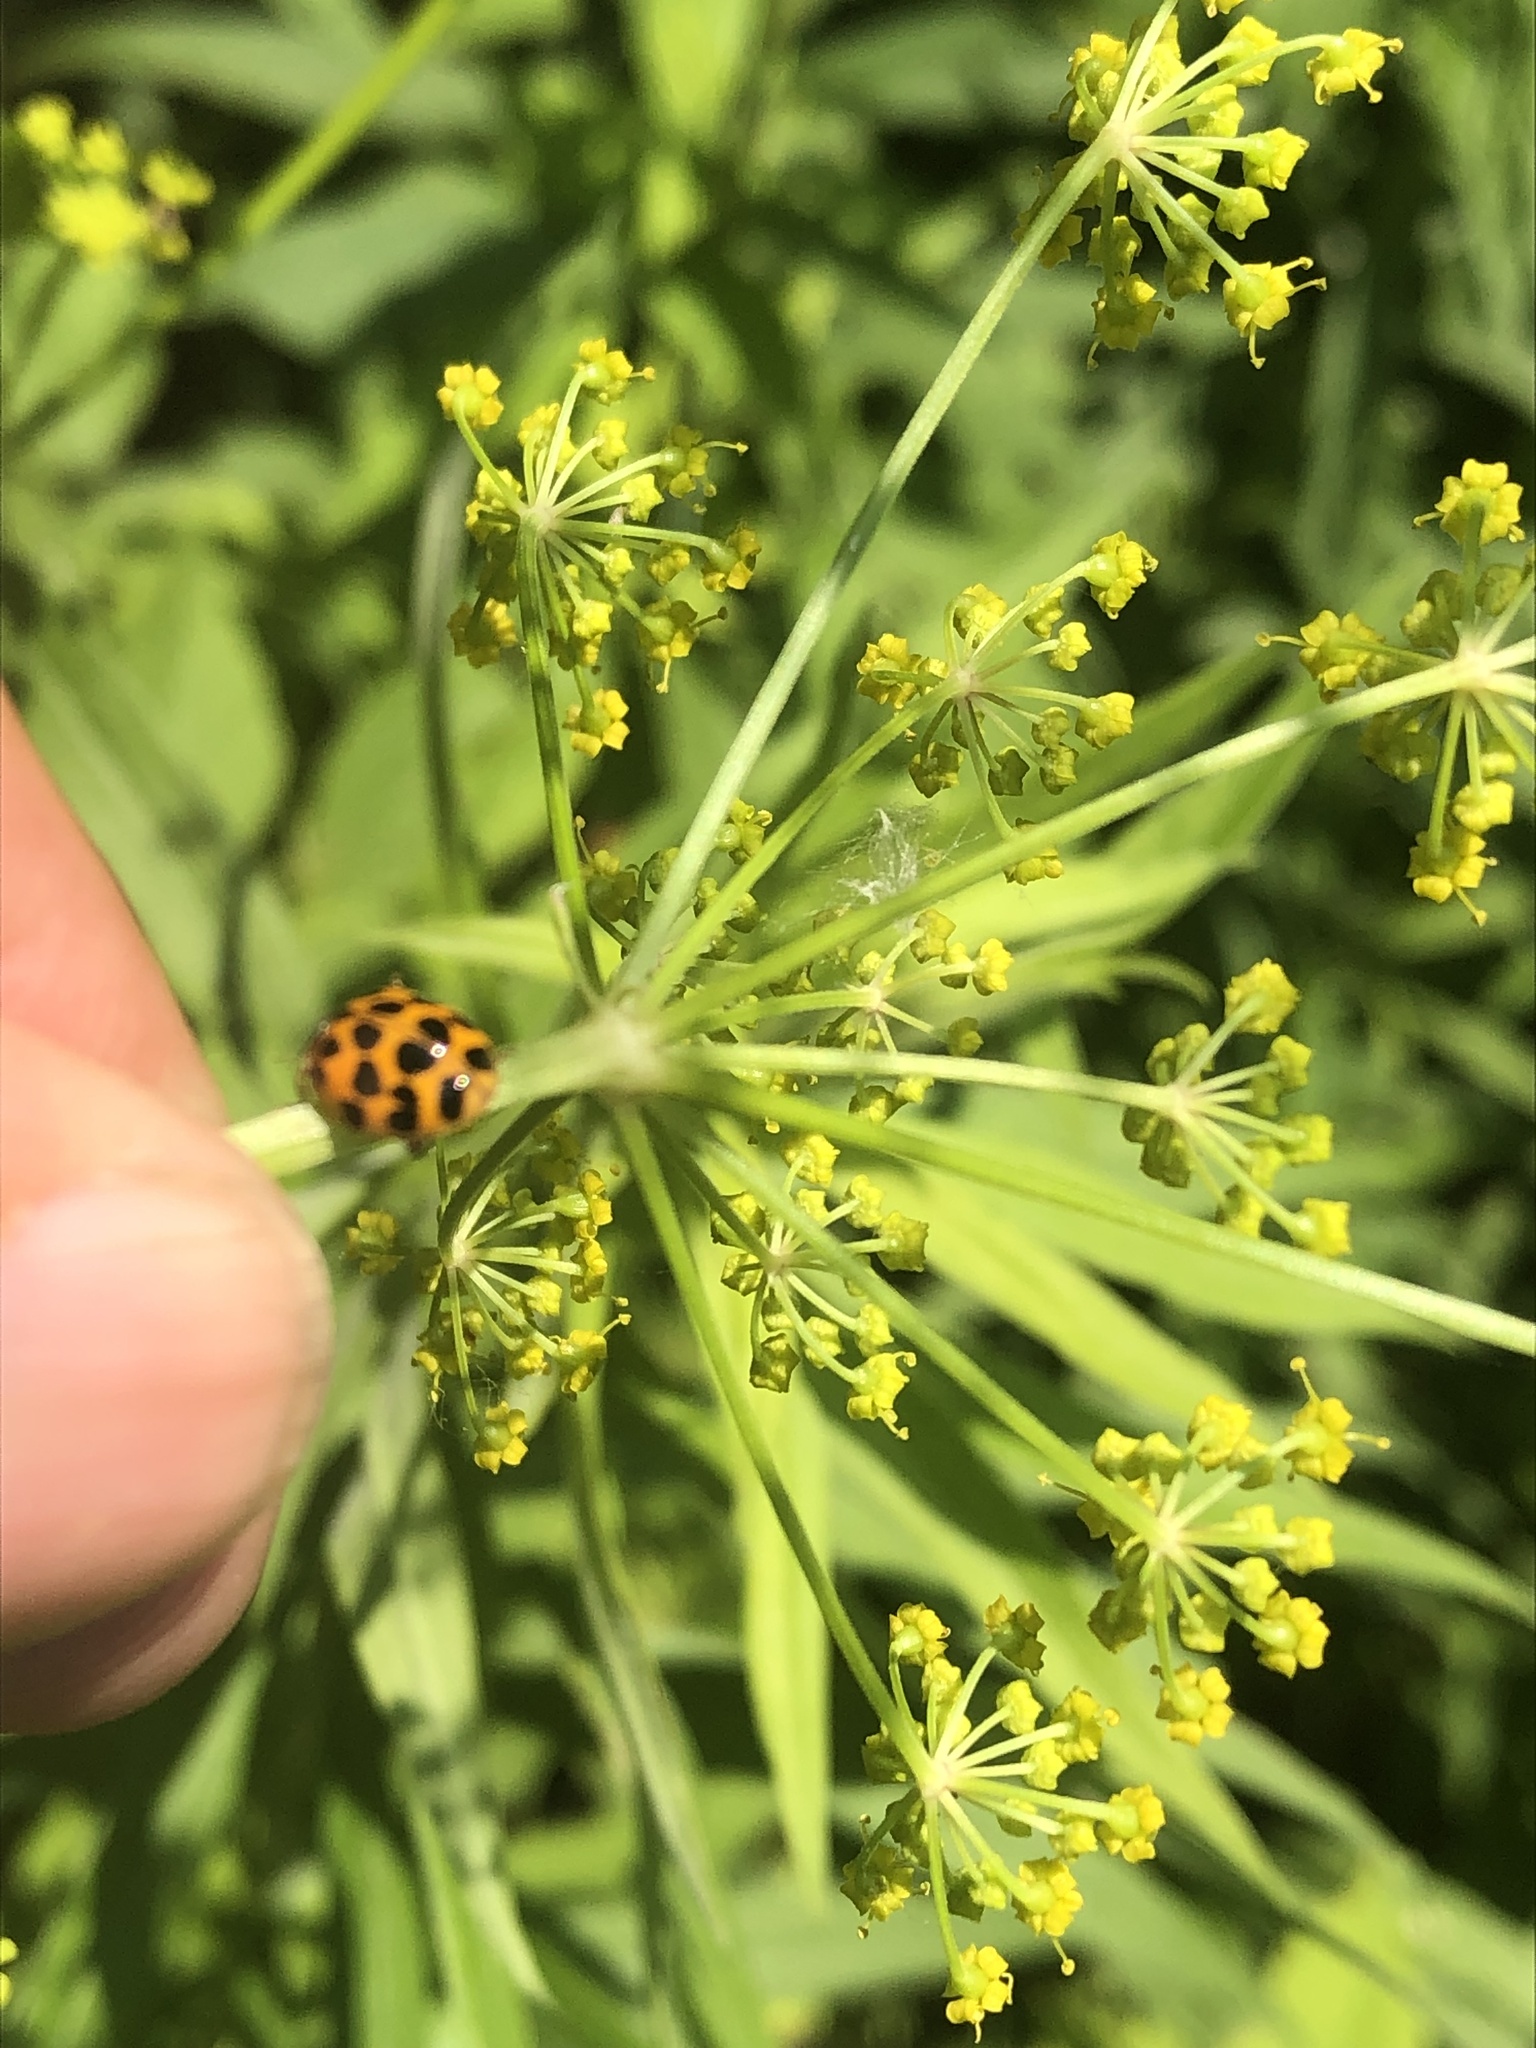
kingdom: Animalia
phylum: Arthropoda
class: Insecta
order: Coleoptera
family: Coccinellidae
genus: Harmonia
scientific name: Harmonia axyridis
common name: Harlequin ladybird
